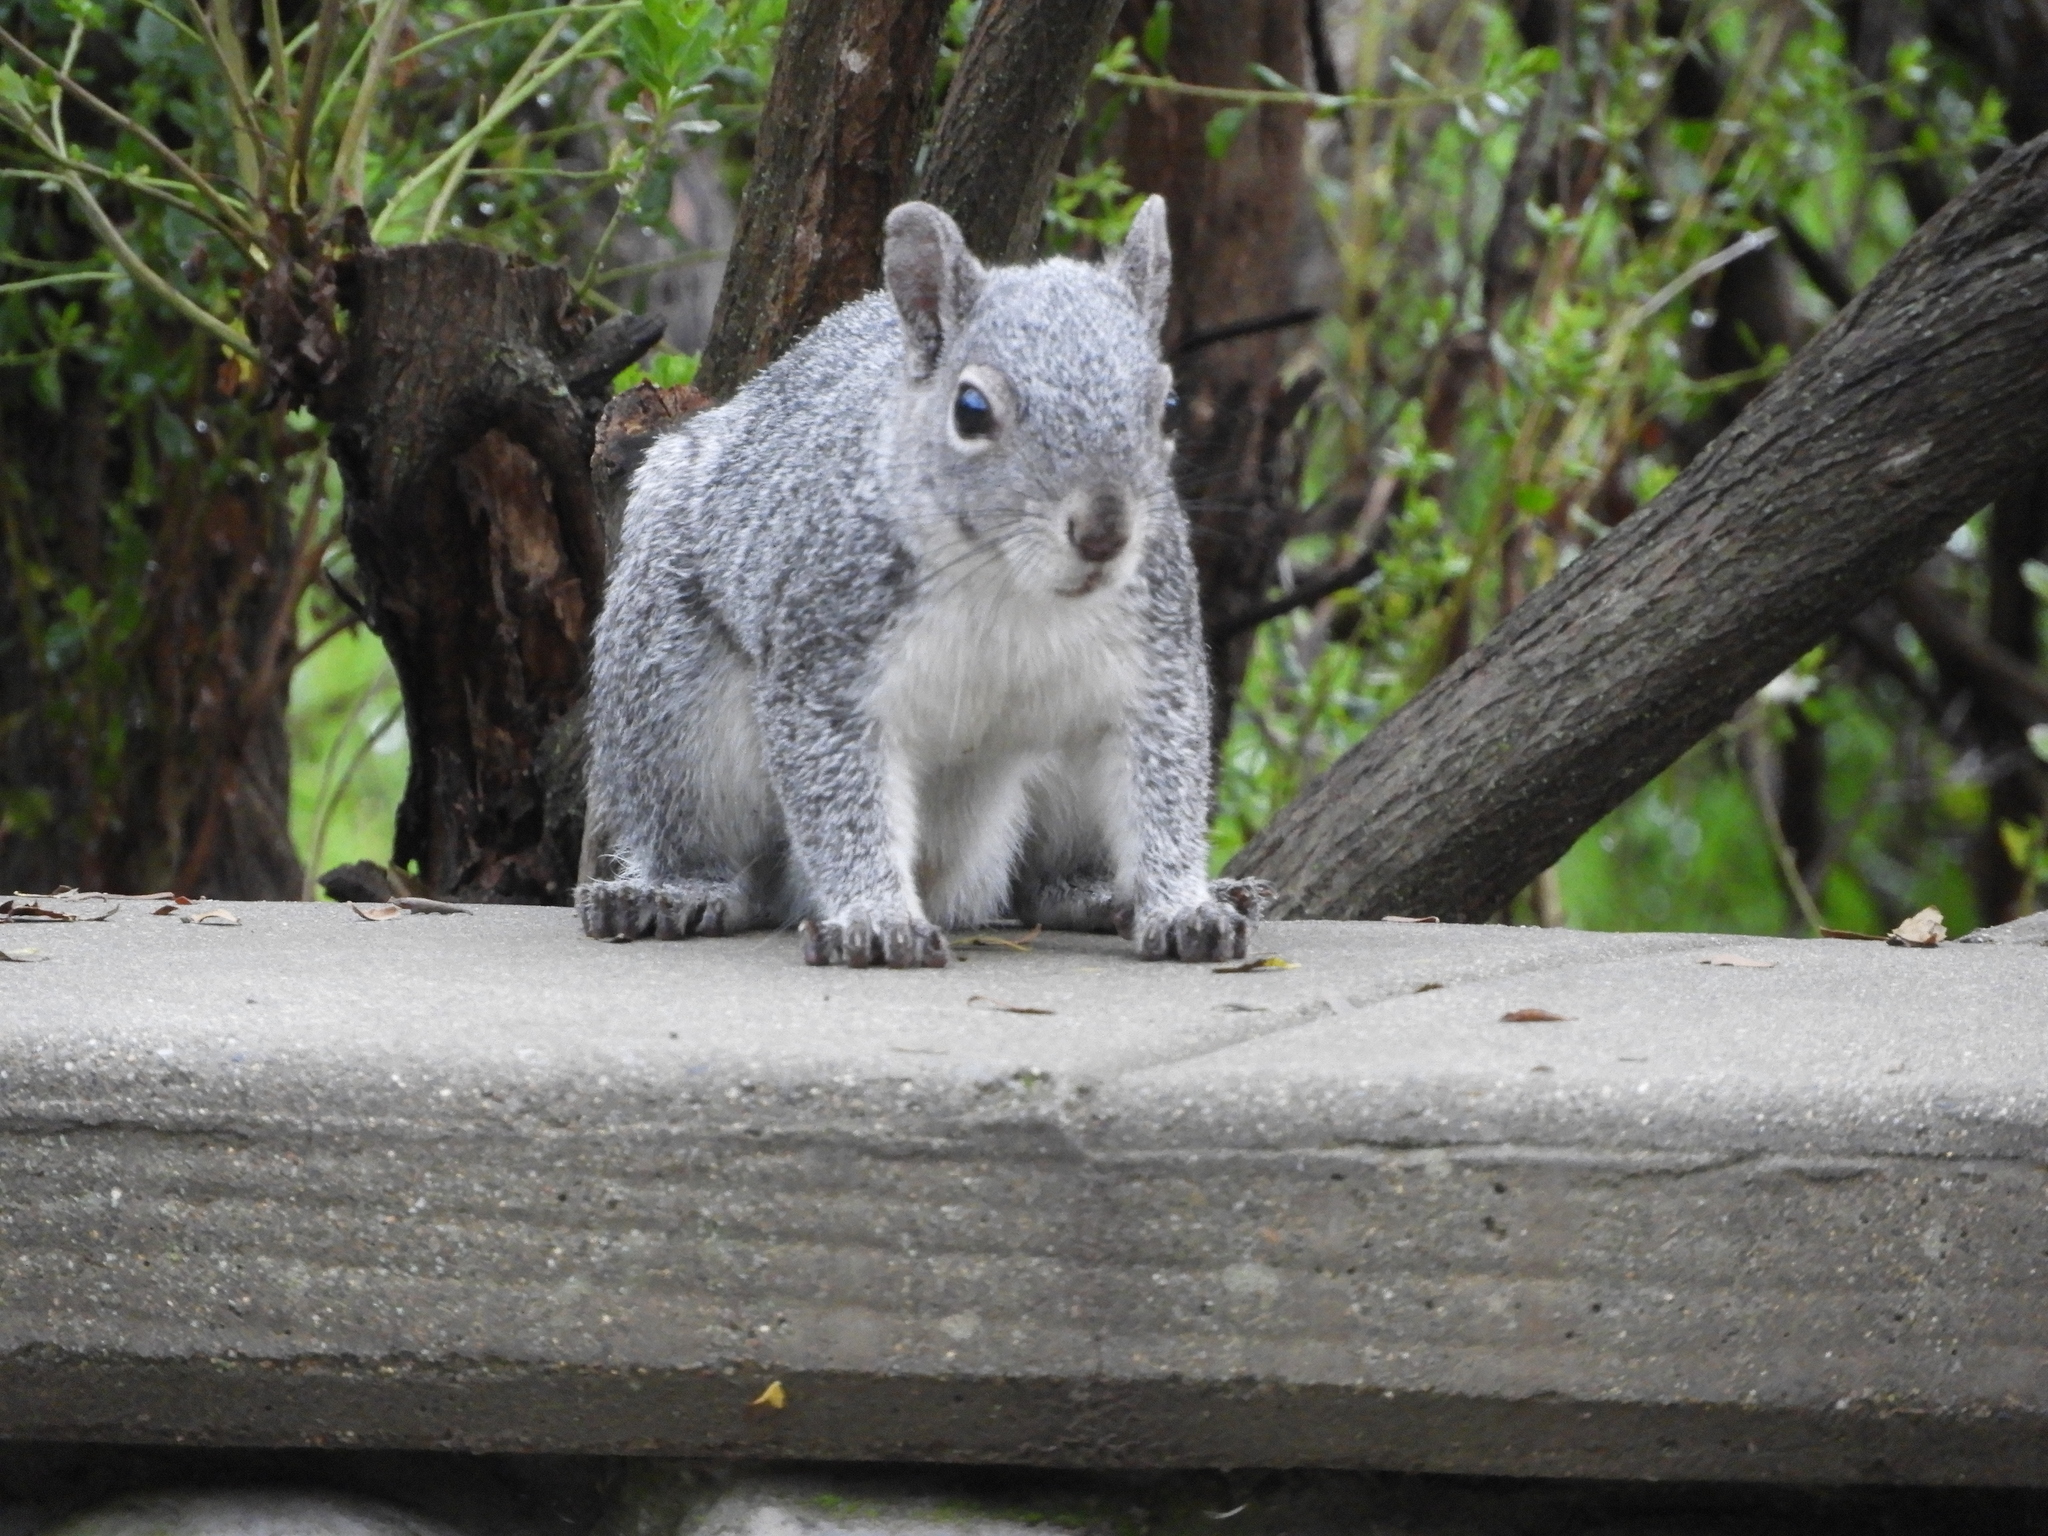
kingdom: Animalia
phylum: Chordata
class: Mammalia
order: Rodentia
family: Sciuridae
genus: Sciurus
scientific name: Sciurus griseus
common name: Western gray squirrel
